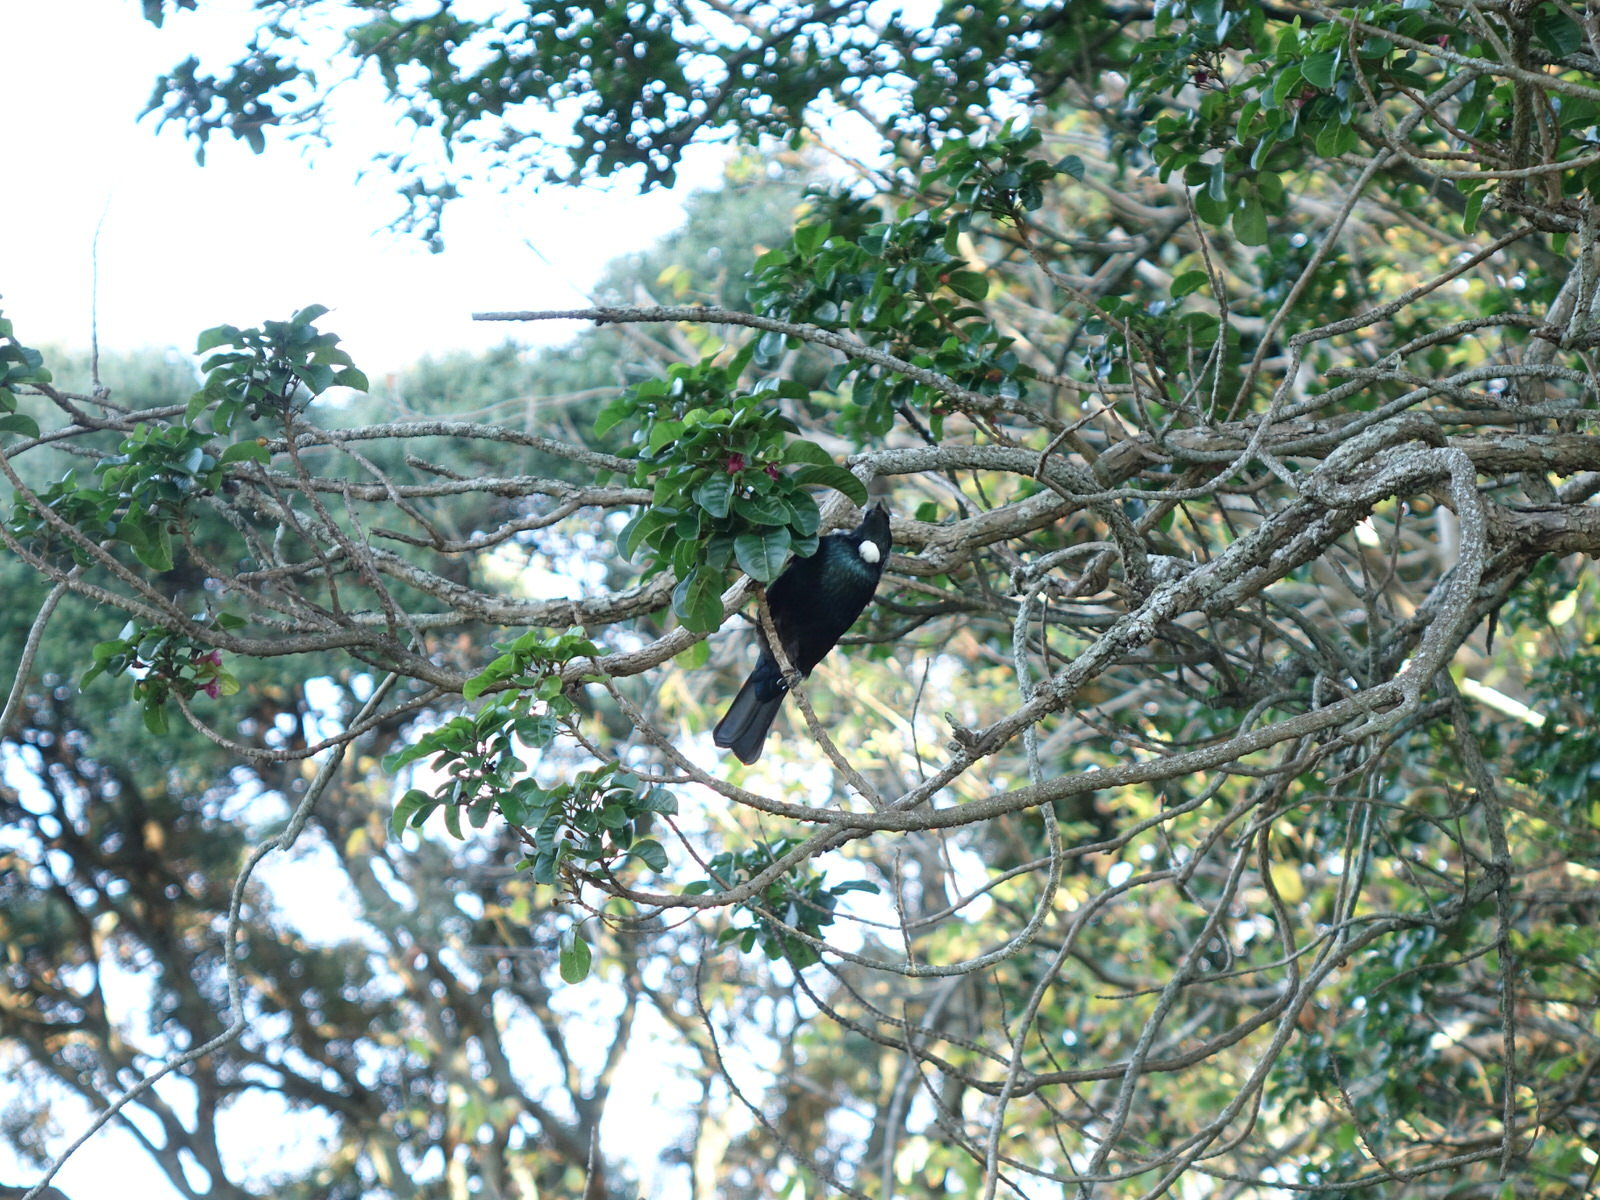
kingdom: Animalia
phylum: Chordata
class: Aves
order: Passeriformes
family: Meliphagidae
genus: Prosthemadera
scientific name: Prosthemadera novaeseelandiae
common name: Tui
